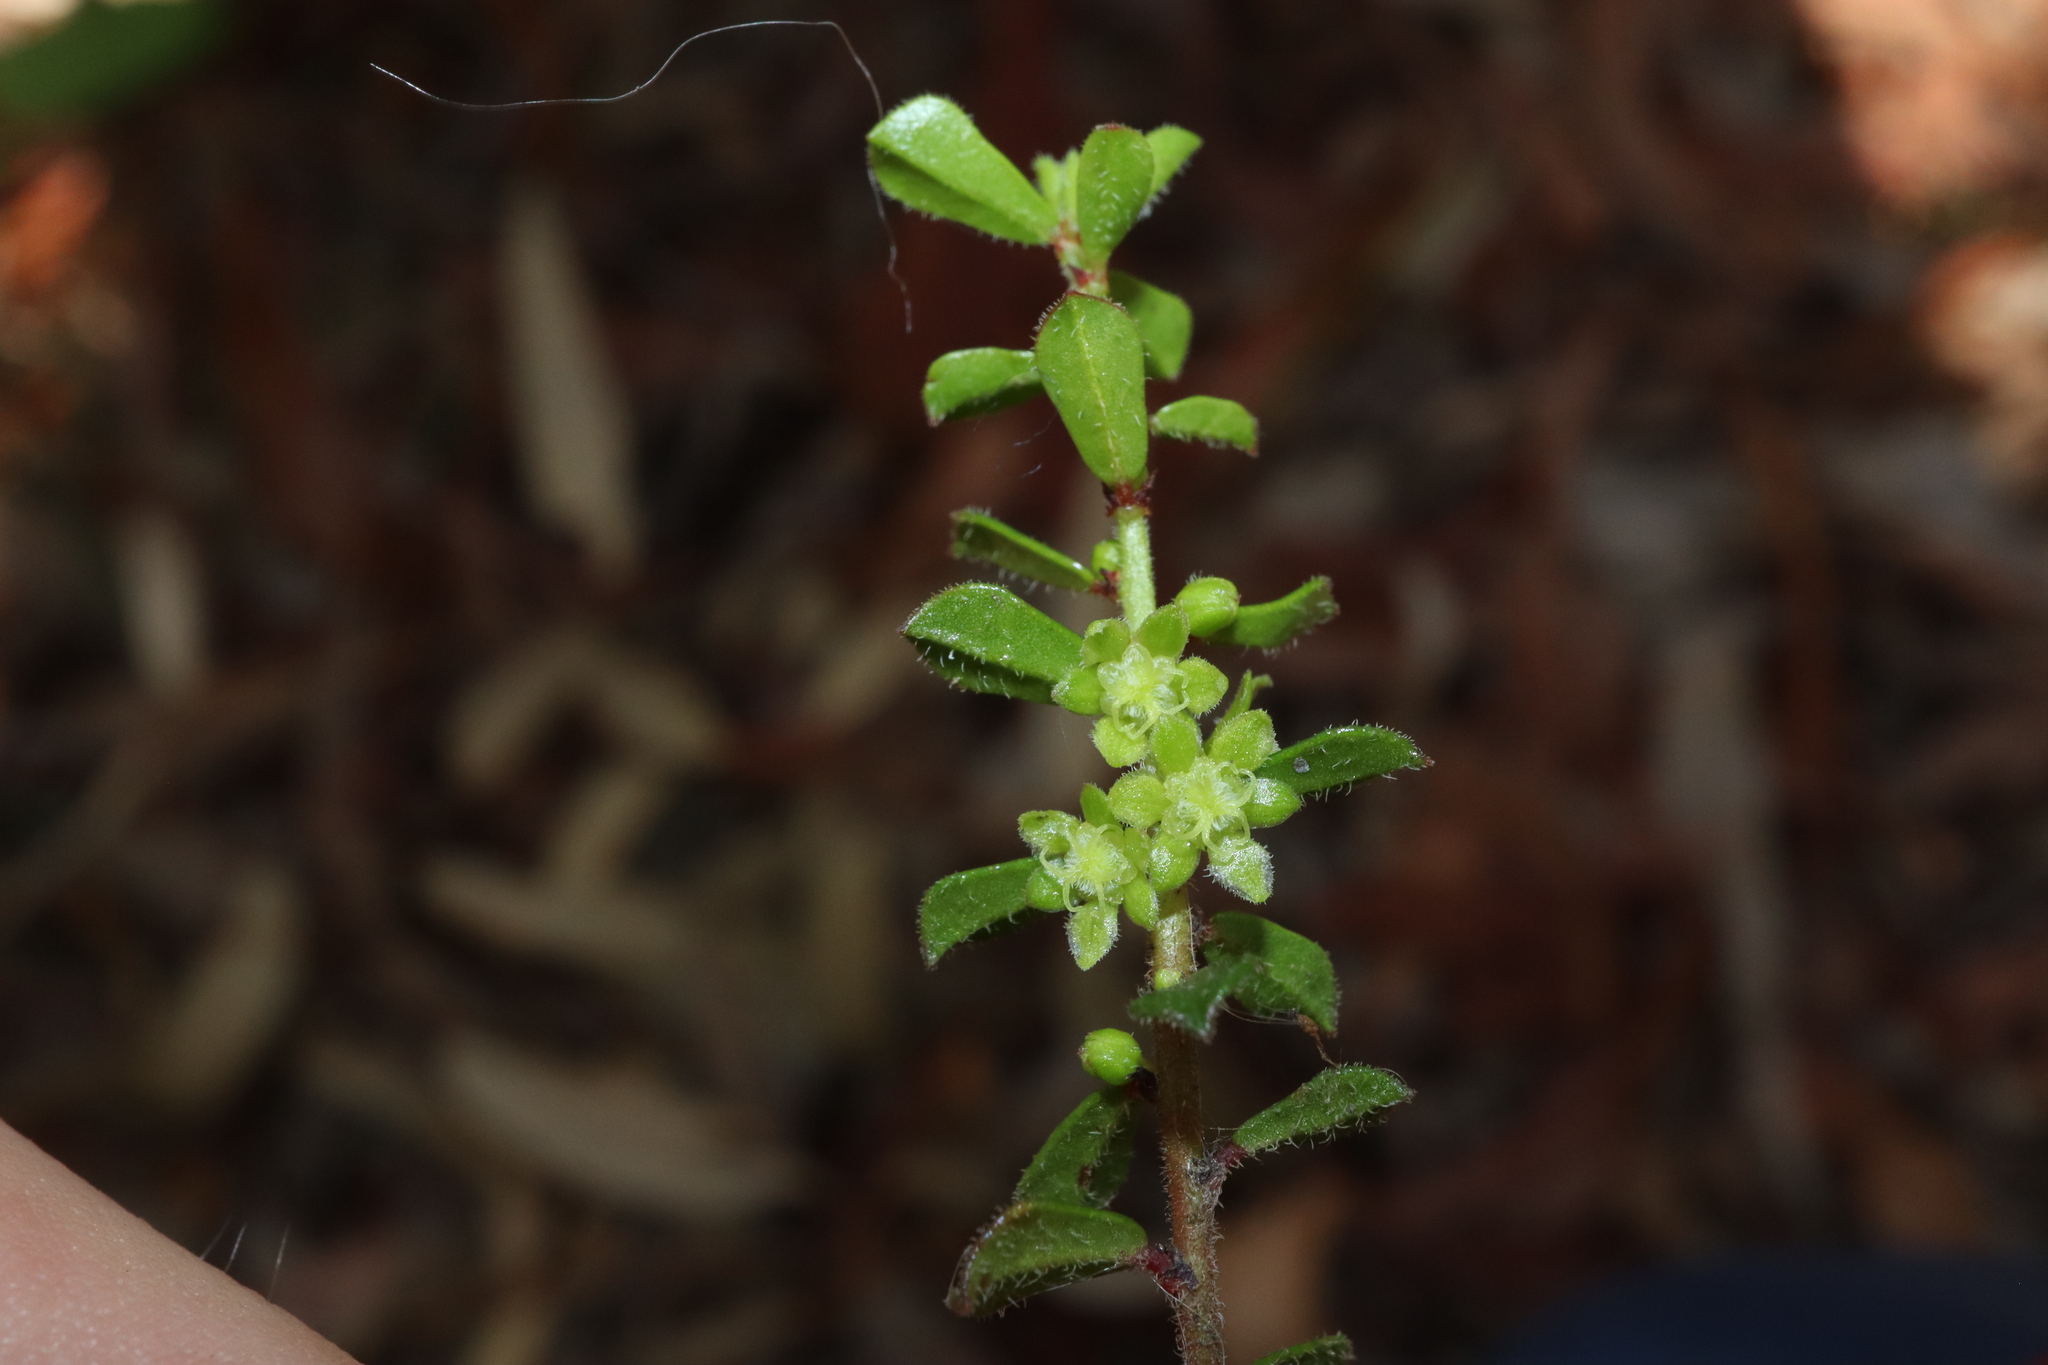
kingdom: Plantae
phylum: Tracheophyta
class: Magnoliopsida
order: Malpighiales
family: Phyllanthaceae
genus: Phyllanthus
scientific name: Phyllanthus hirtellus
